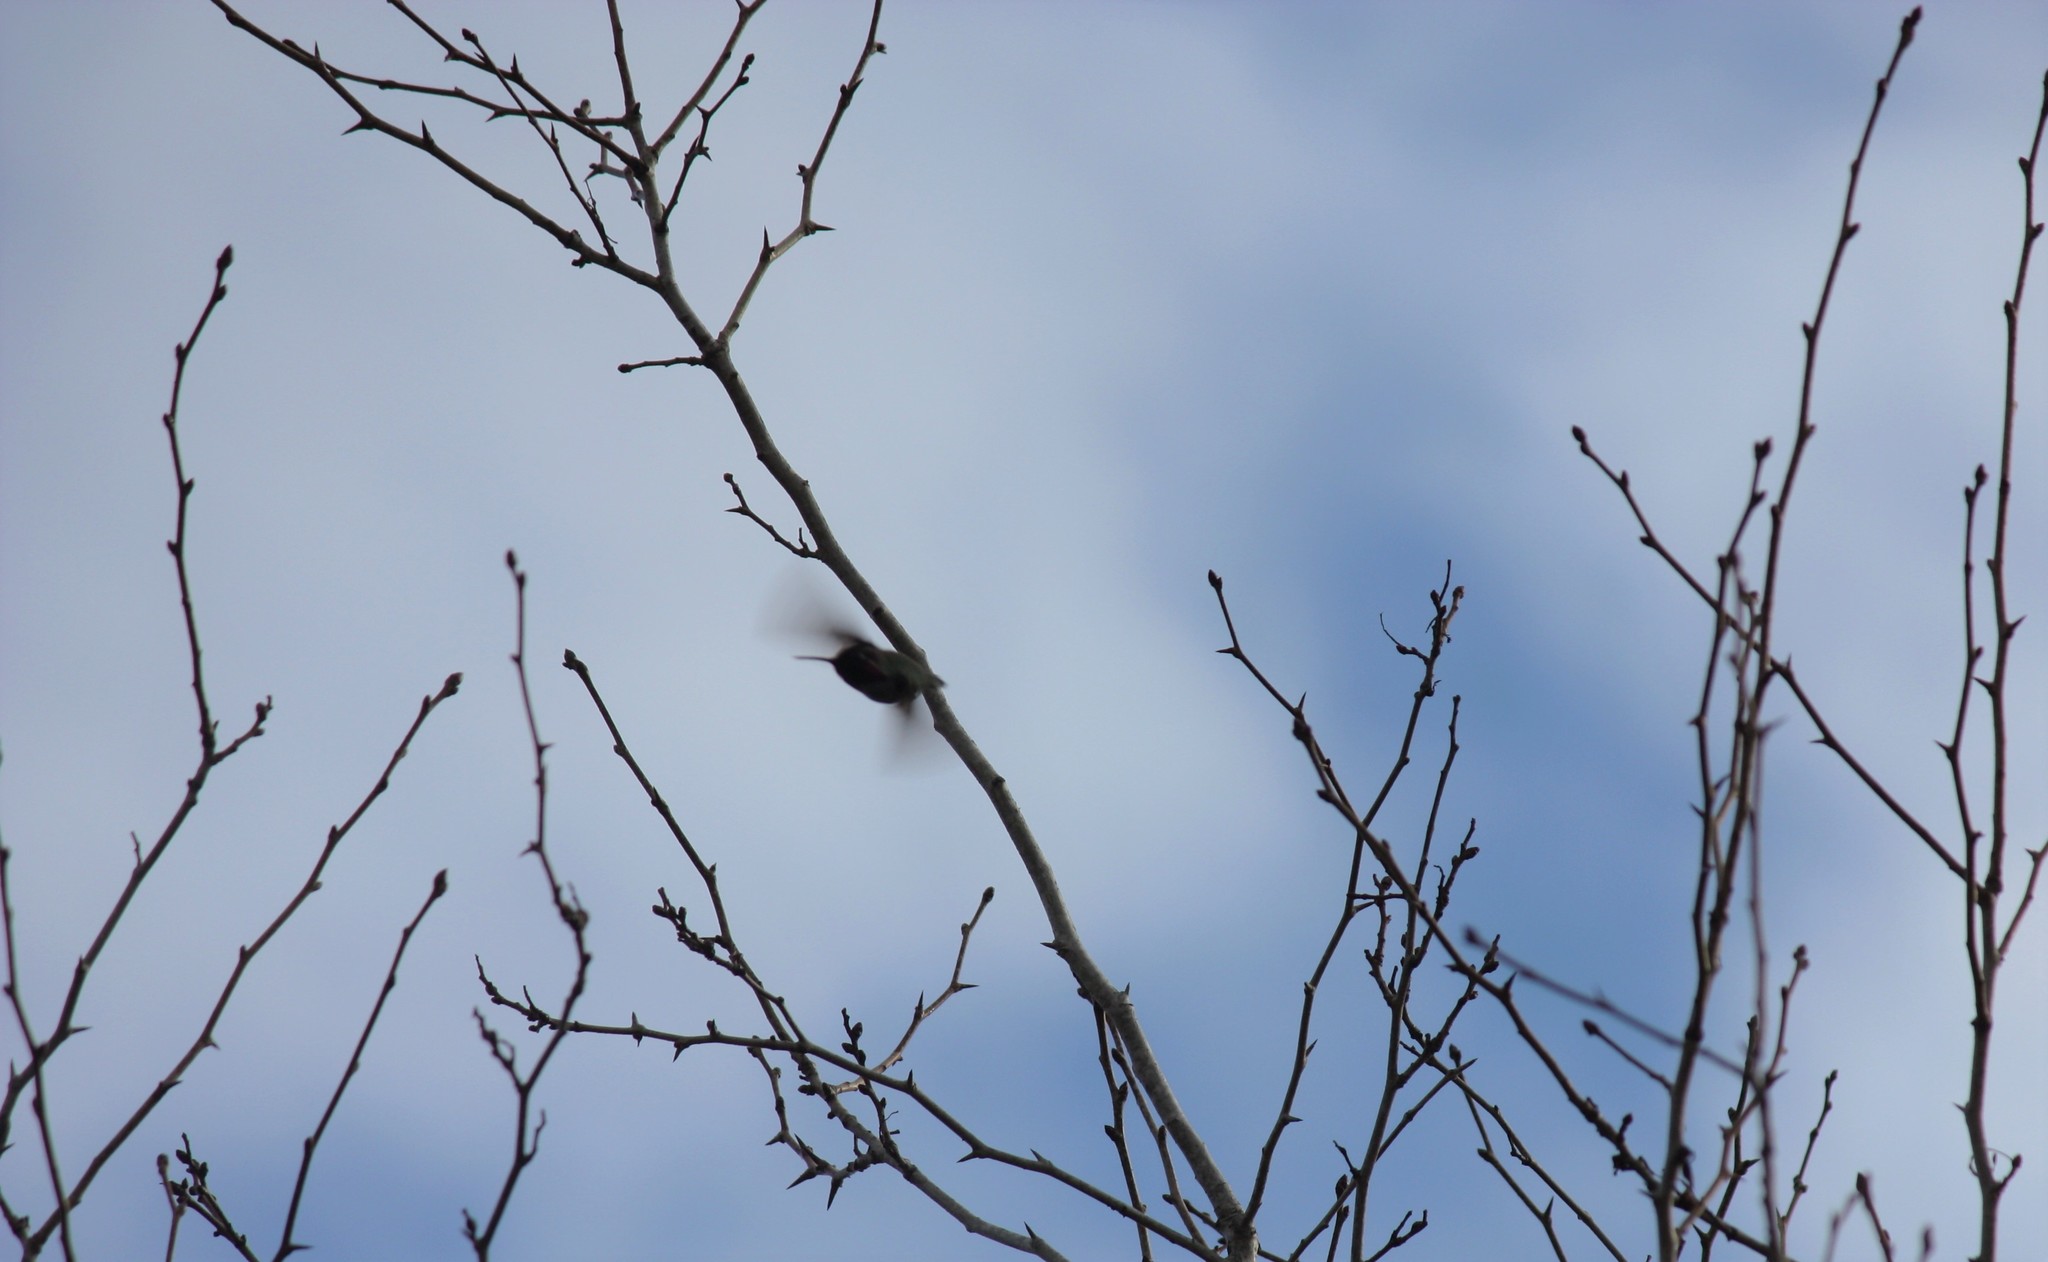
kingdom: Animalia
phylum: Chordata
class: Aves
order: Apodiformes
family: Trochilidae
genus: Calypte
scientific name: Calypte anna
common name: Anna's hummingbird
